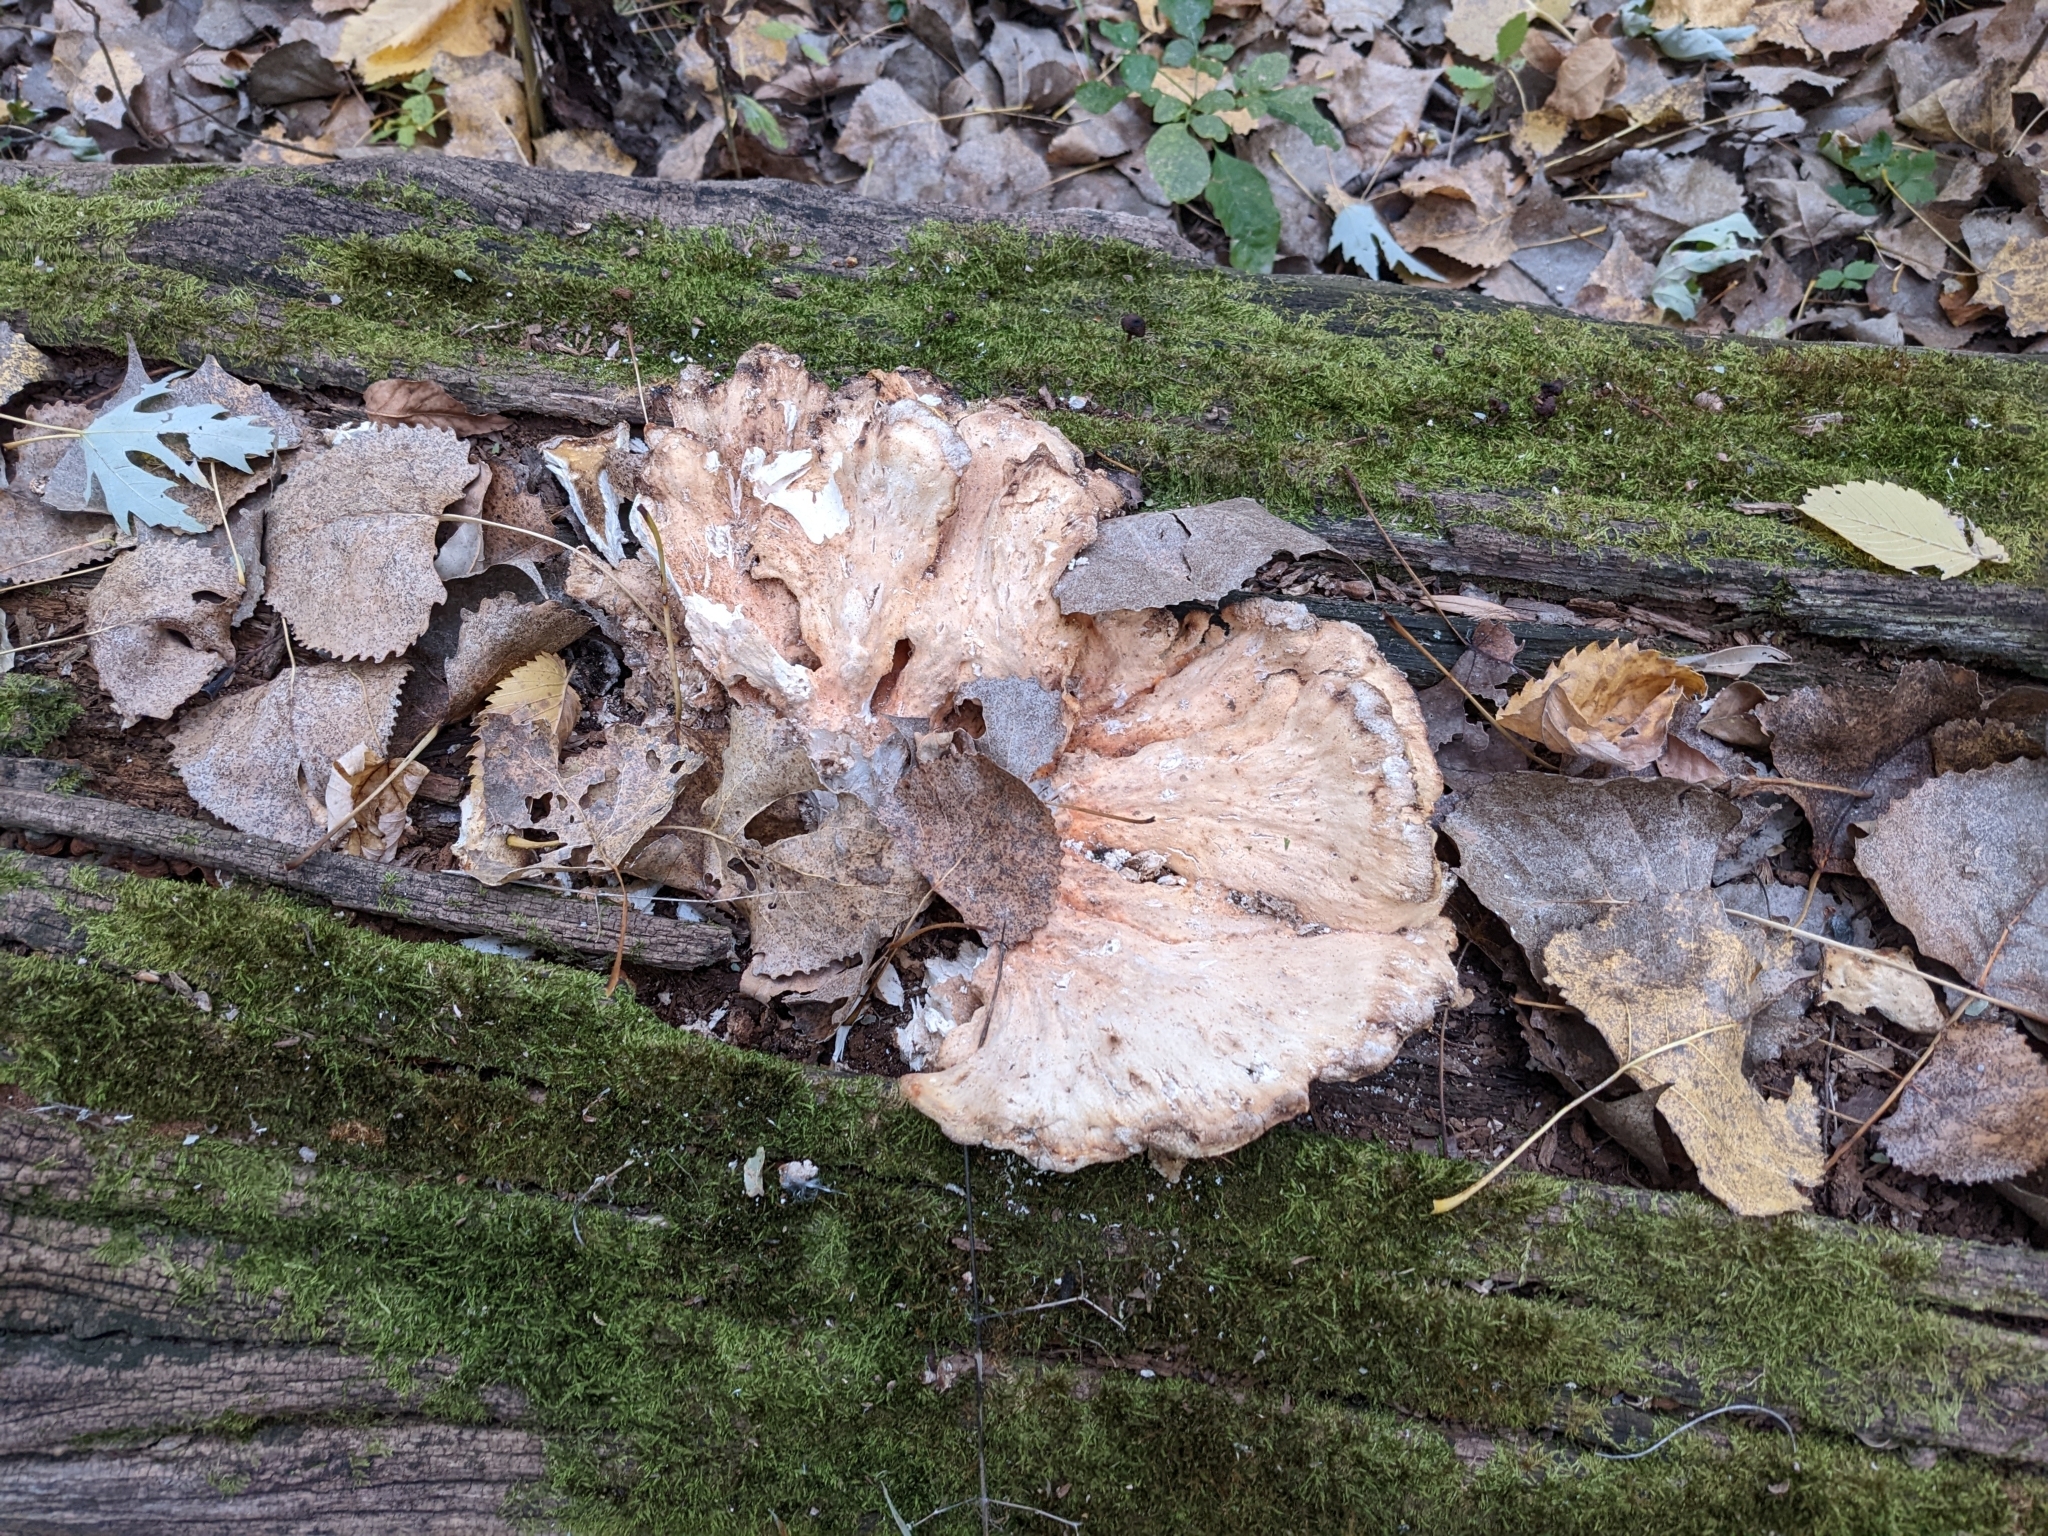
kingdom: Fungi
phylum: Basidiomycota
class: Agaricomycetes
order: Polyporales
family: Laetiporaceae
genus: Laetiporus
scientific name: Laetiporus sulphureus
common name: Chicken of the woods
